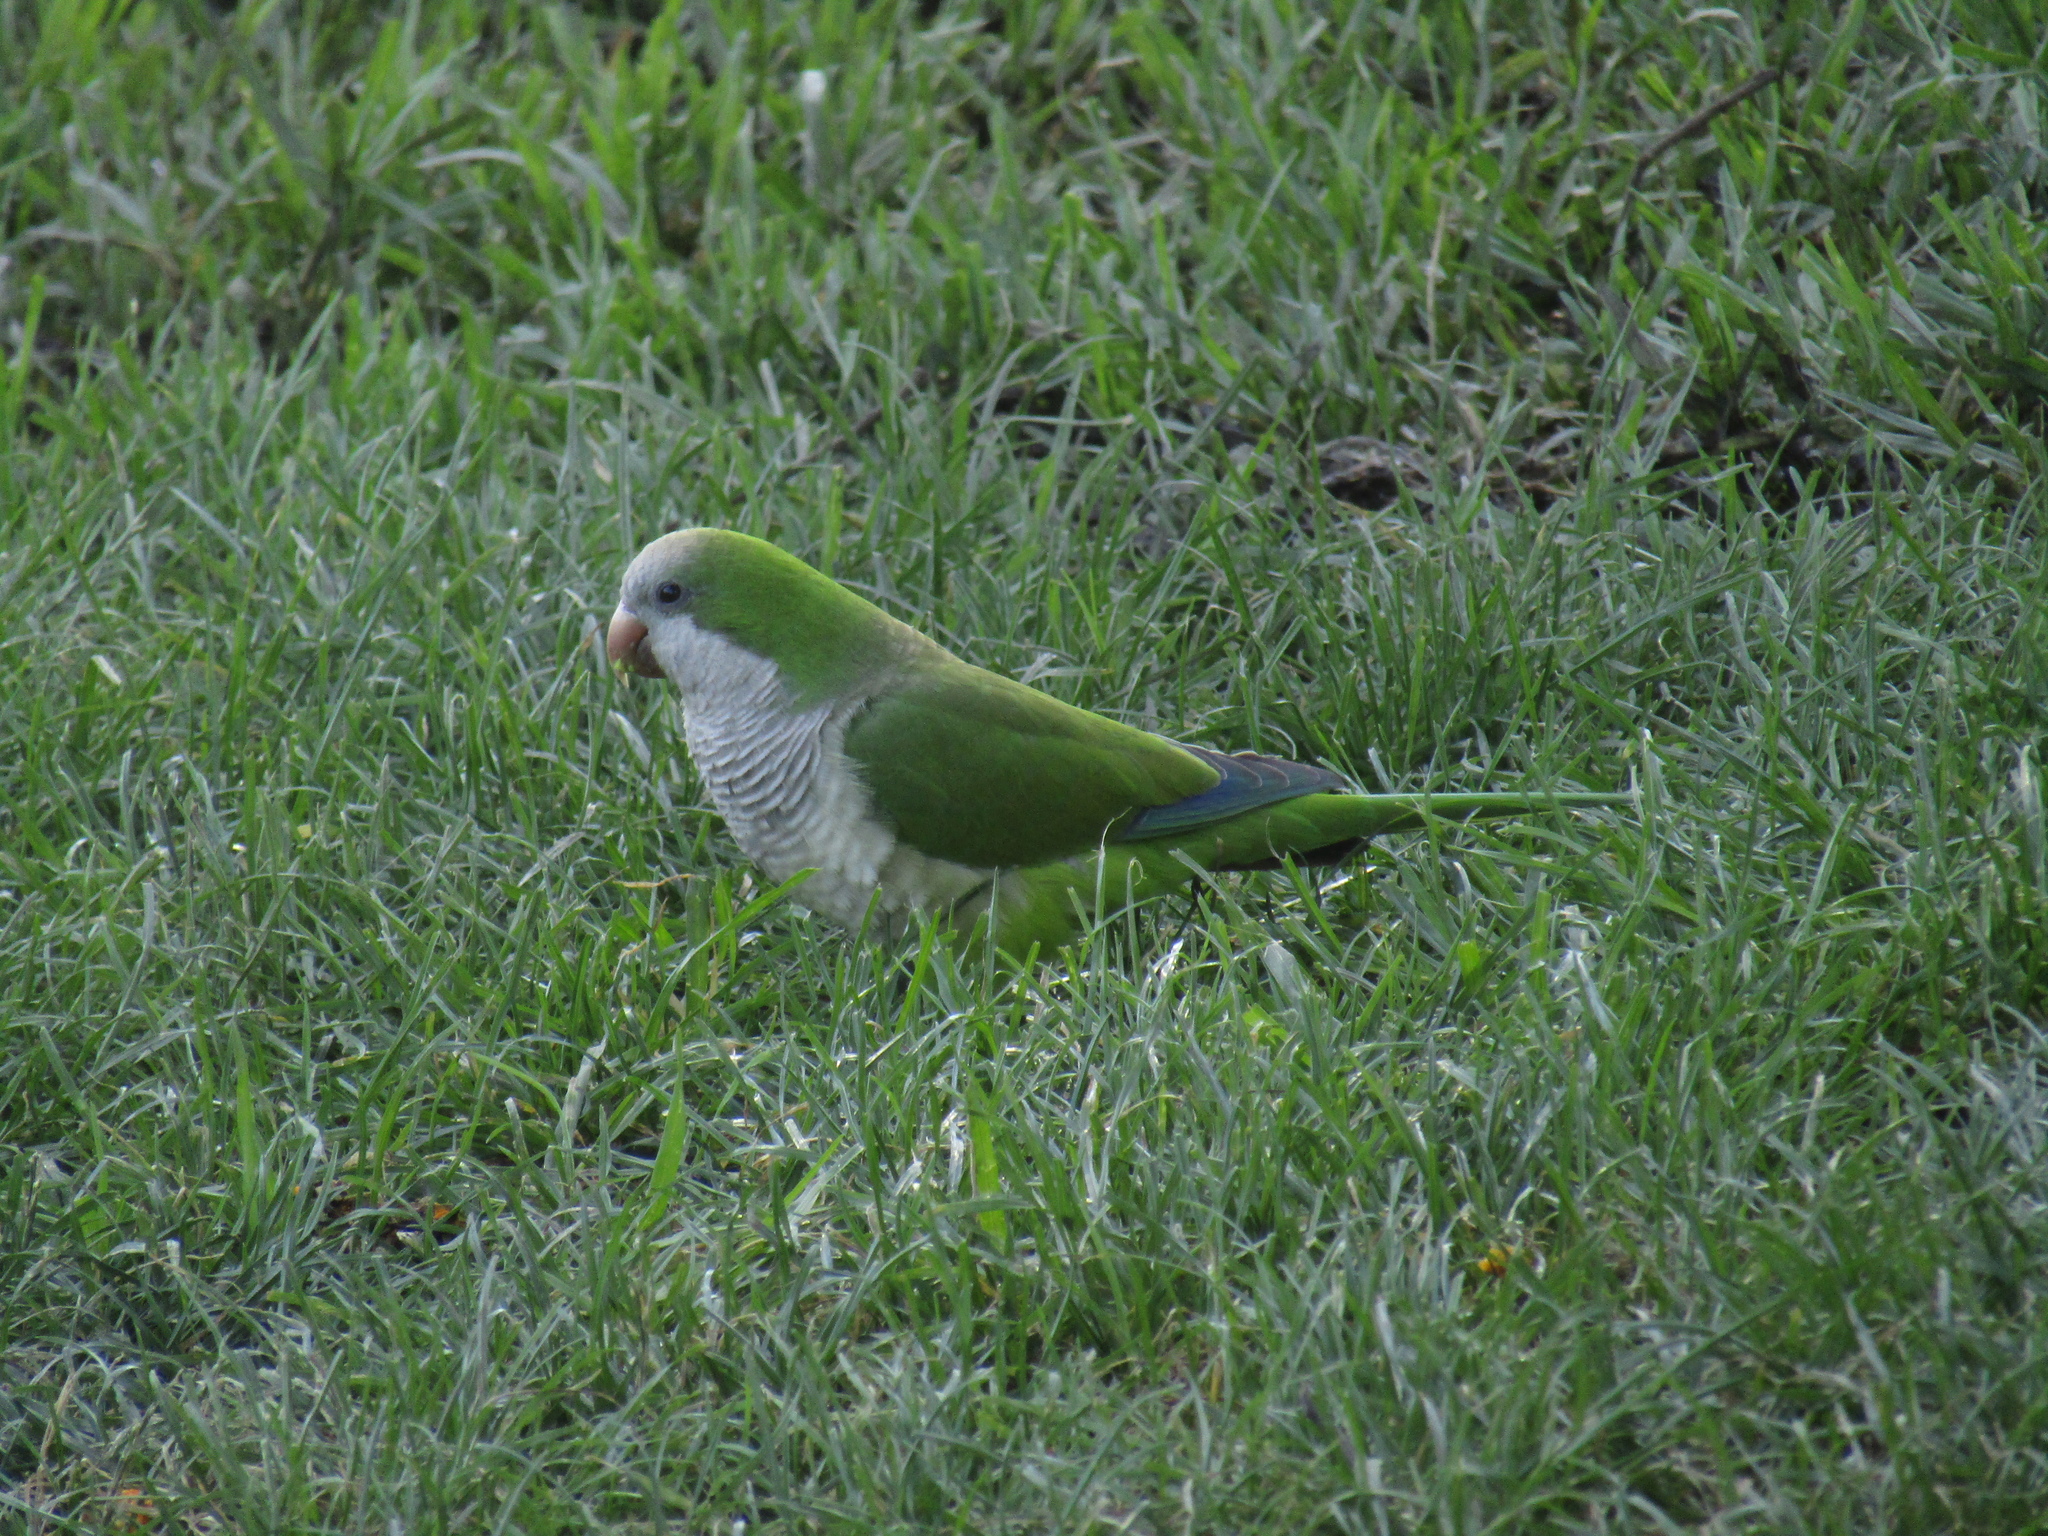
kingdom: Animalia
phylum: Chordata
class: Aves
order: Psittaciformes
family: Psittacidae
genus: Myiopsitta
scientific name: Myiopsitta monachus
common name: Monk parakeet
